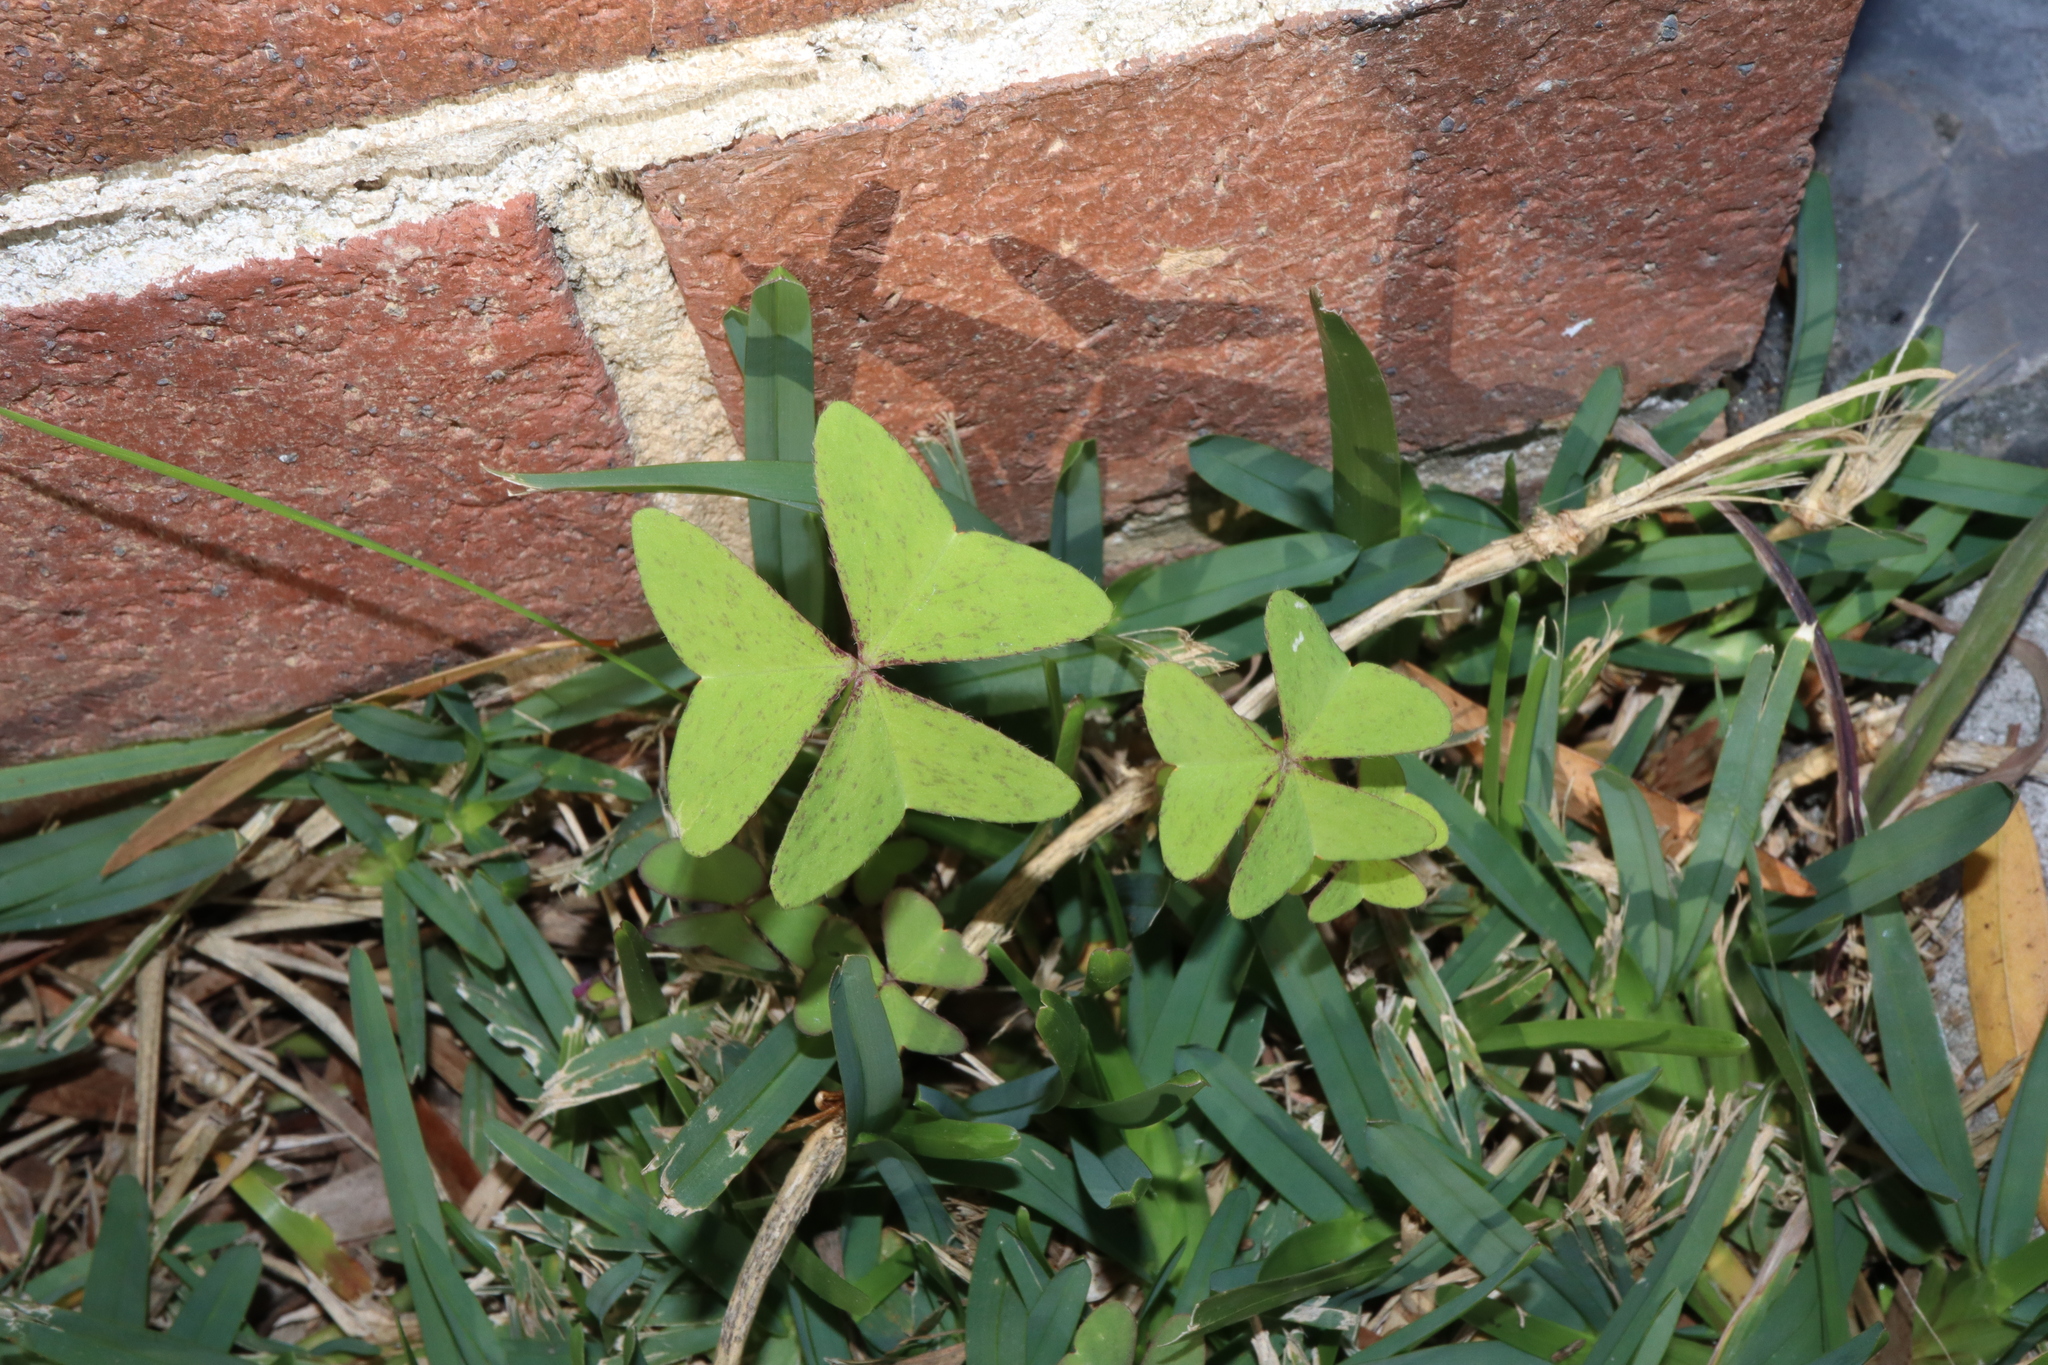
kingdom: Plantae
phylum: Tracheophyta
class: Magnoliopsida
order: Oxalidales
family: Oxalidaceae
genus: Oxalis
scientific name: Oxalis latifolia
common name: Garden pink-sorrel
